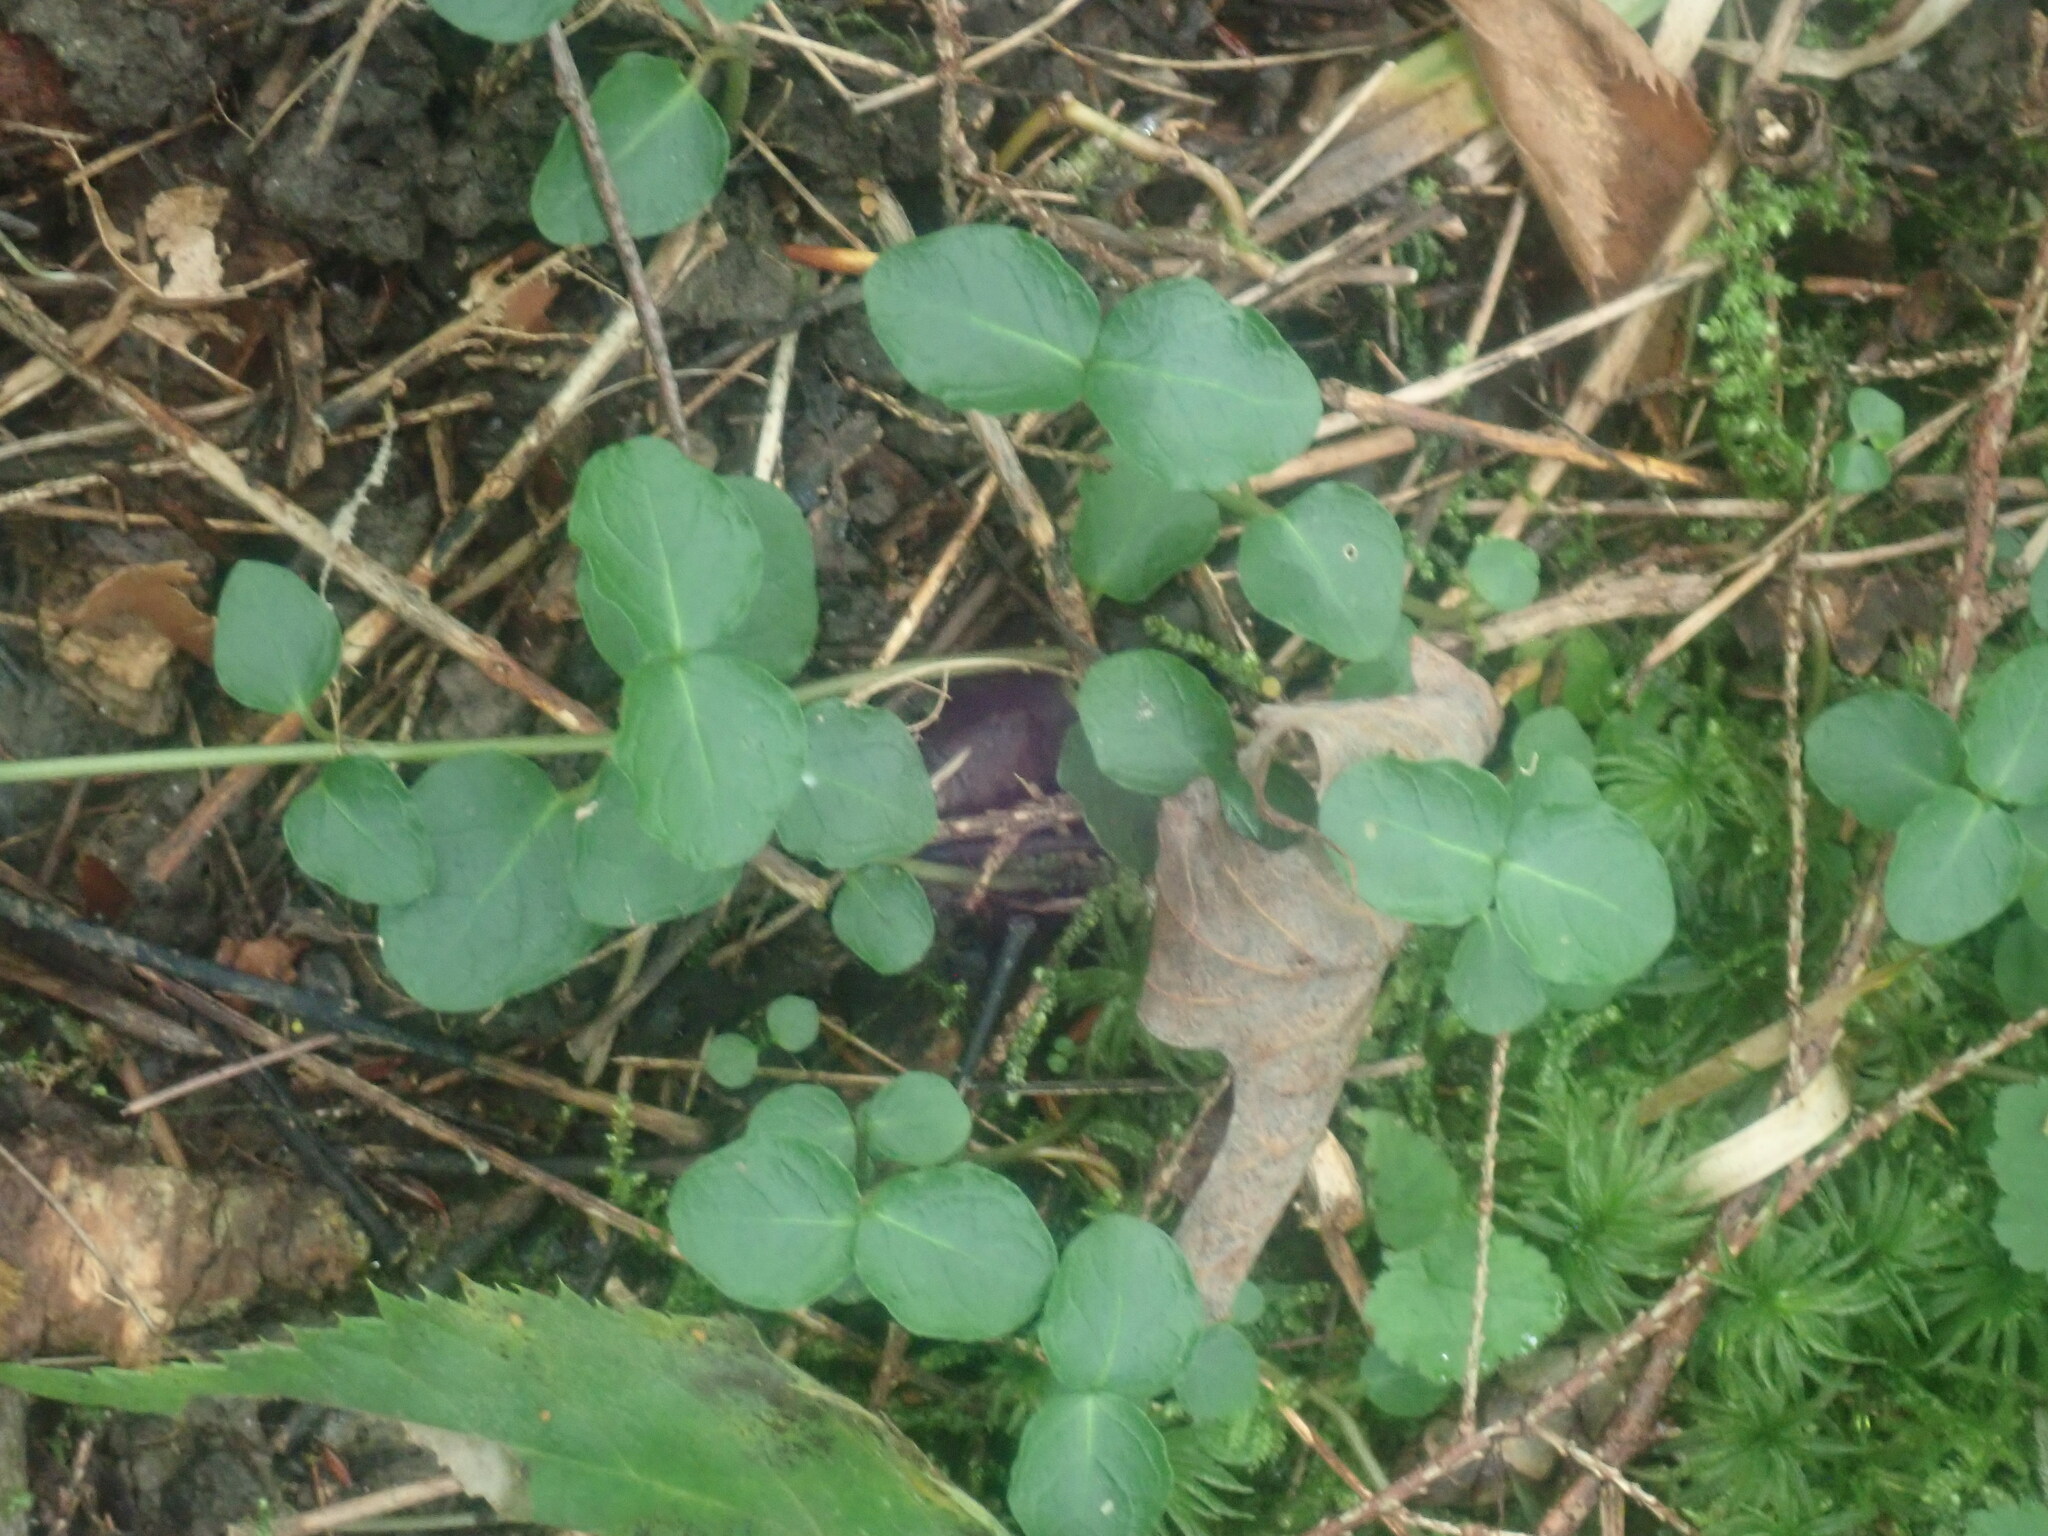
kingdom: Plantae
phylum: Tracheophyta
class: Magnoliopsida
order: Gentianales
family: Rubiaceae
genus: Mitchella
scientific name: Mitchella repens
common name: Partridge-berry
